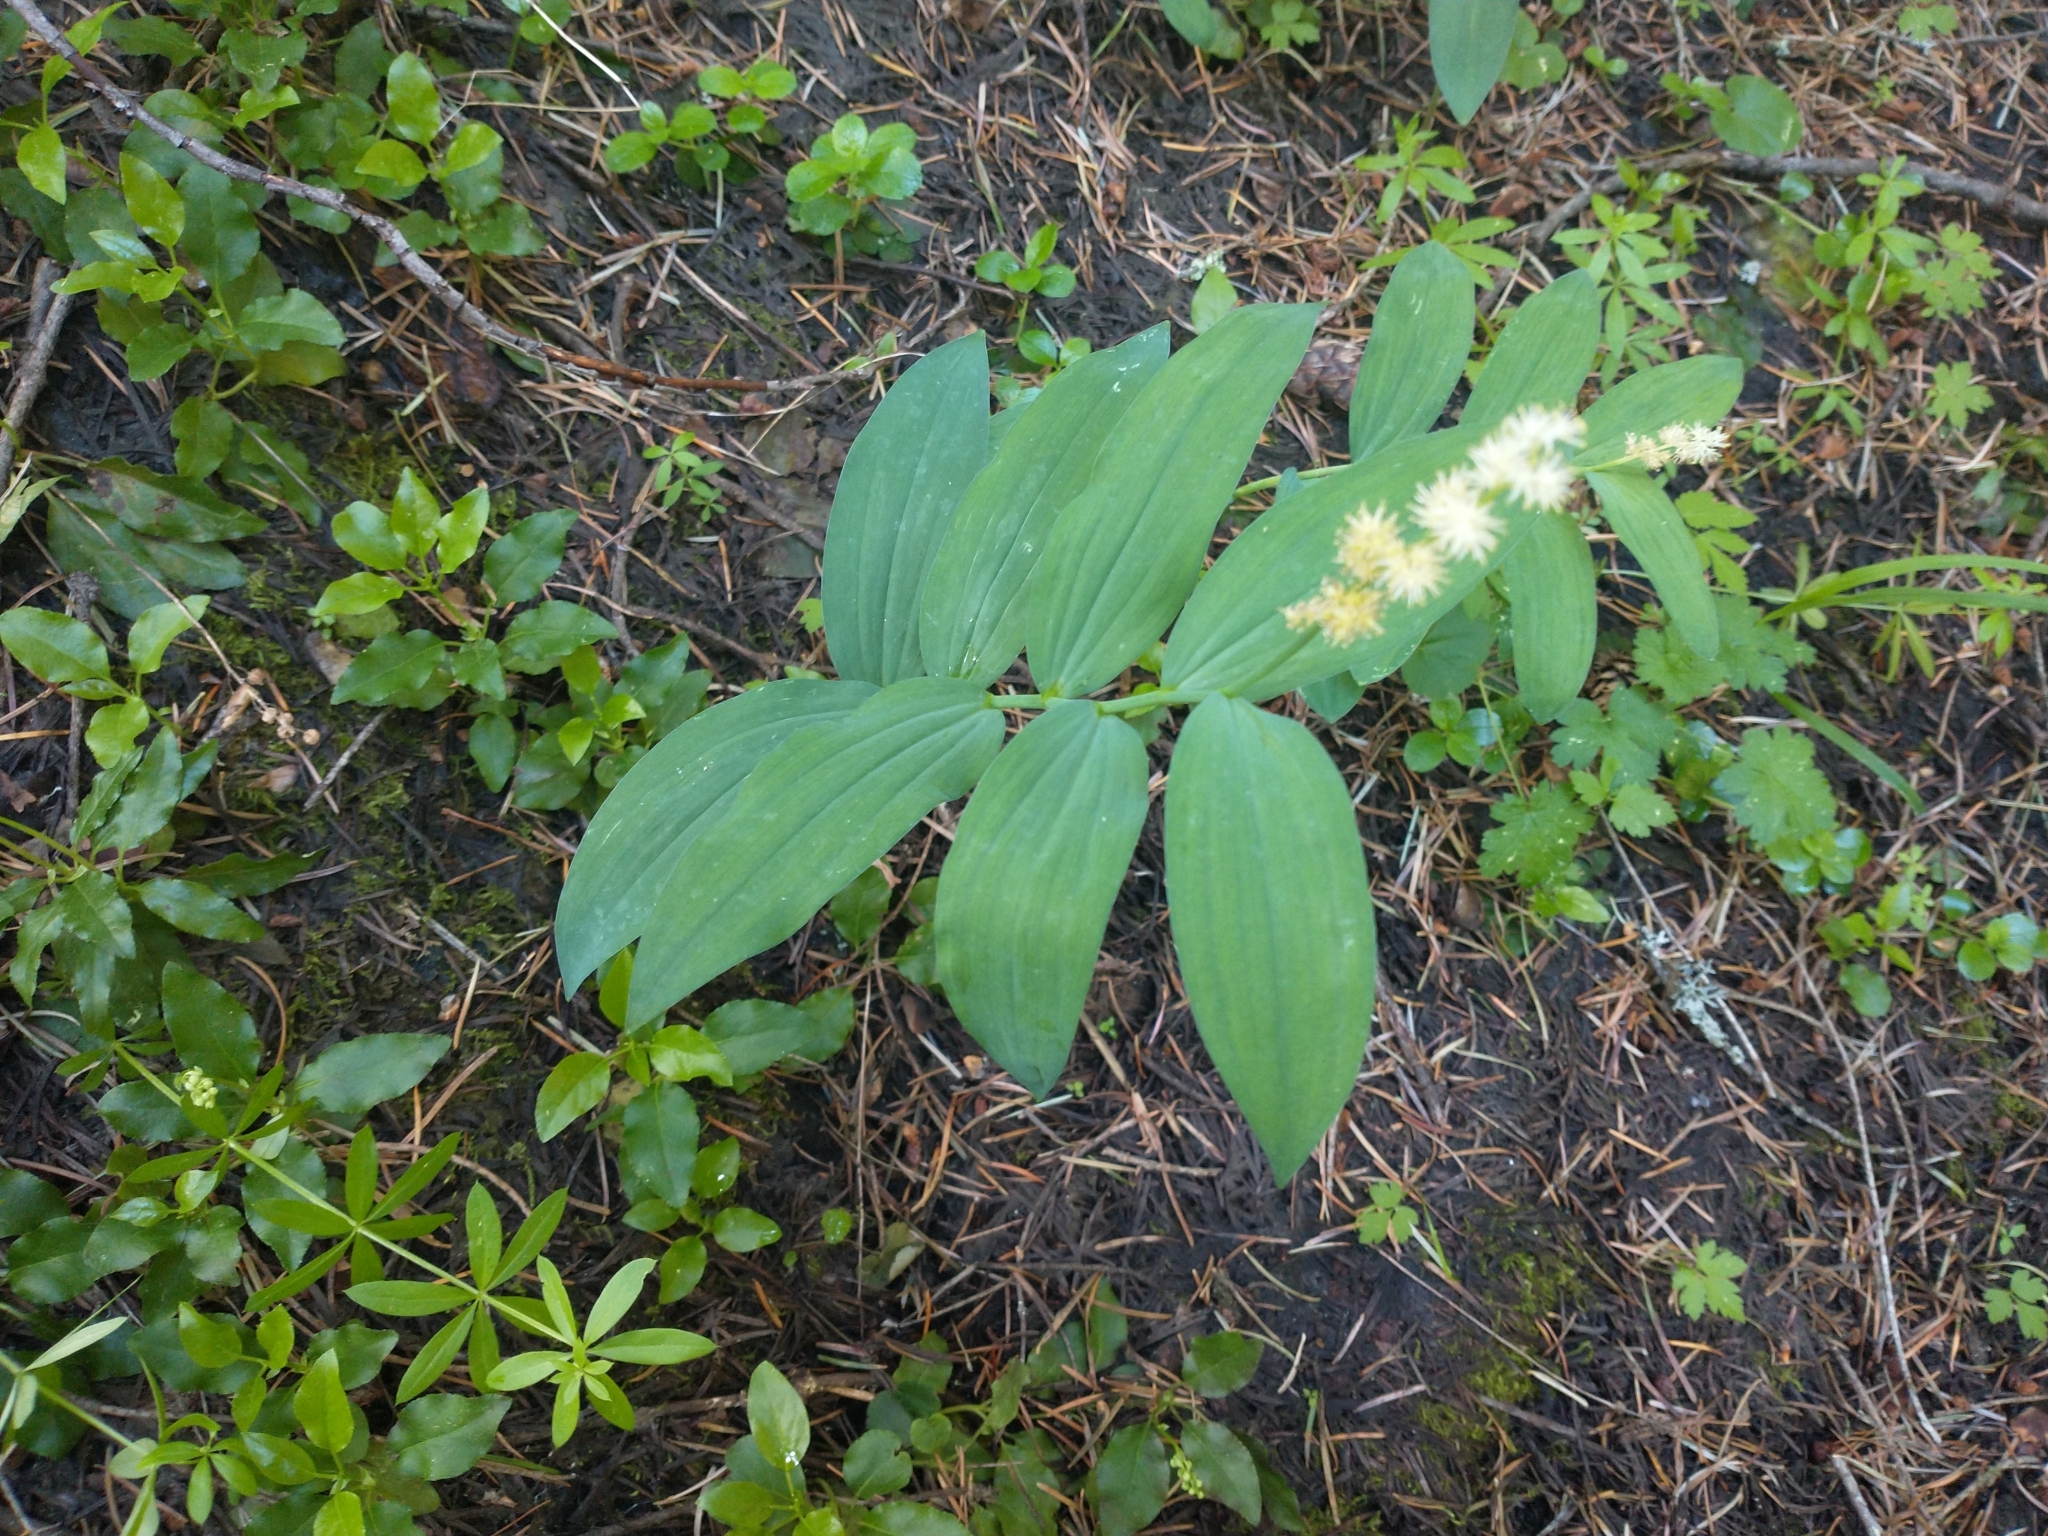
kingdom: Plantae
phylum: Tracheophyta
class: Liliopsida
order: Asparagales
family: Asparagaceae
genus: Maianthemum
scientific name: Maianthemum racemosum
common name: False spikenard
